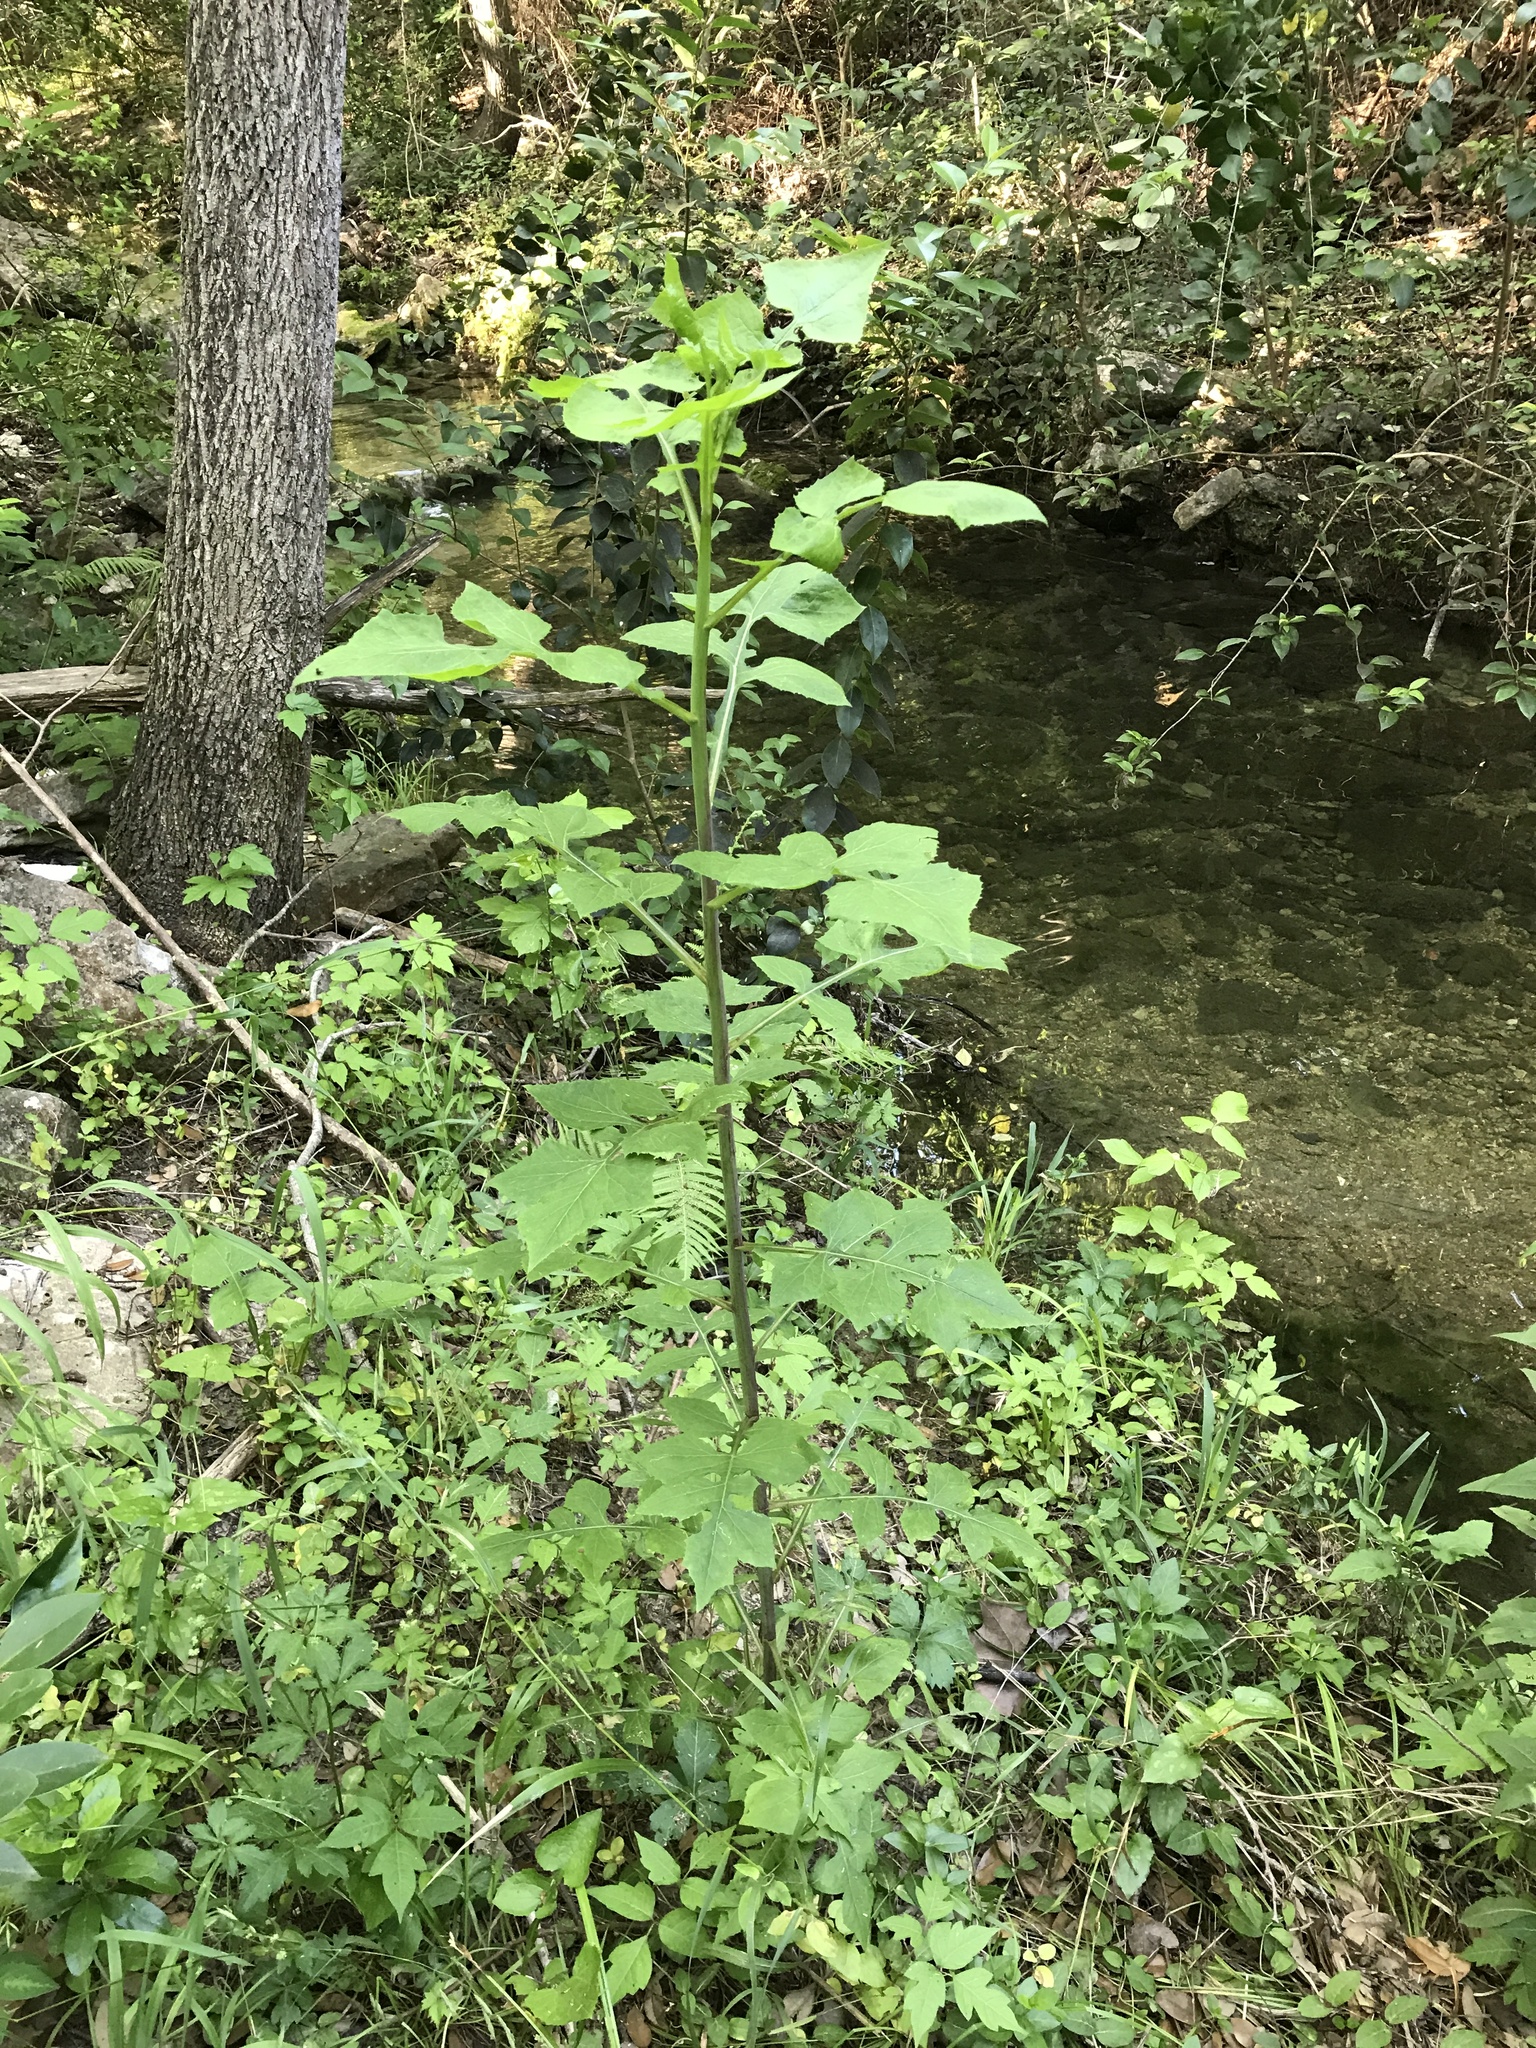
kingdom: Plantae
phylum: Tracheophyta
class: Magnoliopsida
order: Asterales
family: Asteraceae
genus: Lactuca
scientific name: Lactuca floridana
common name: Woodland lettuce
